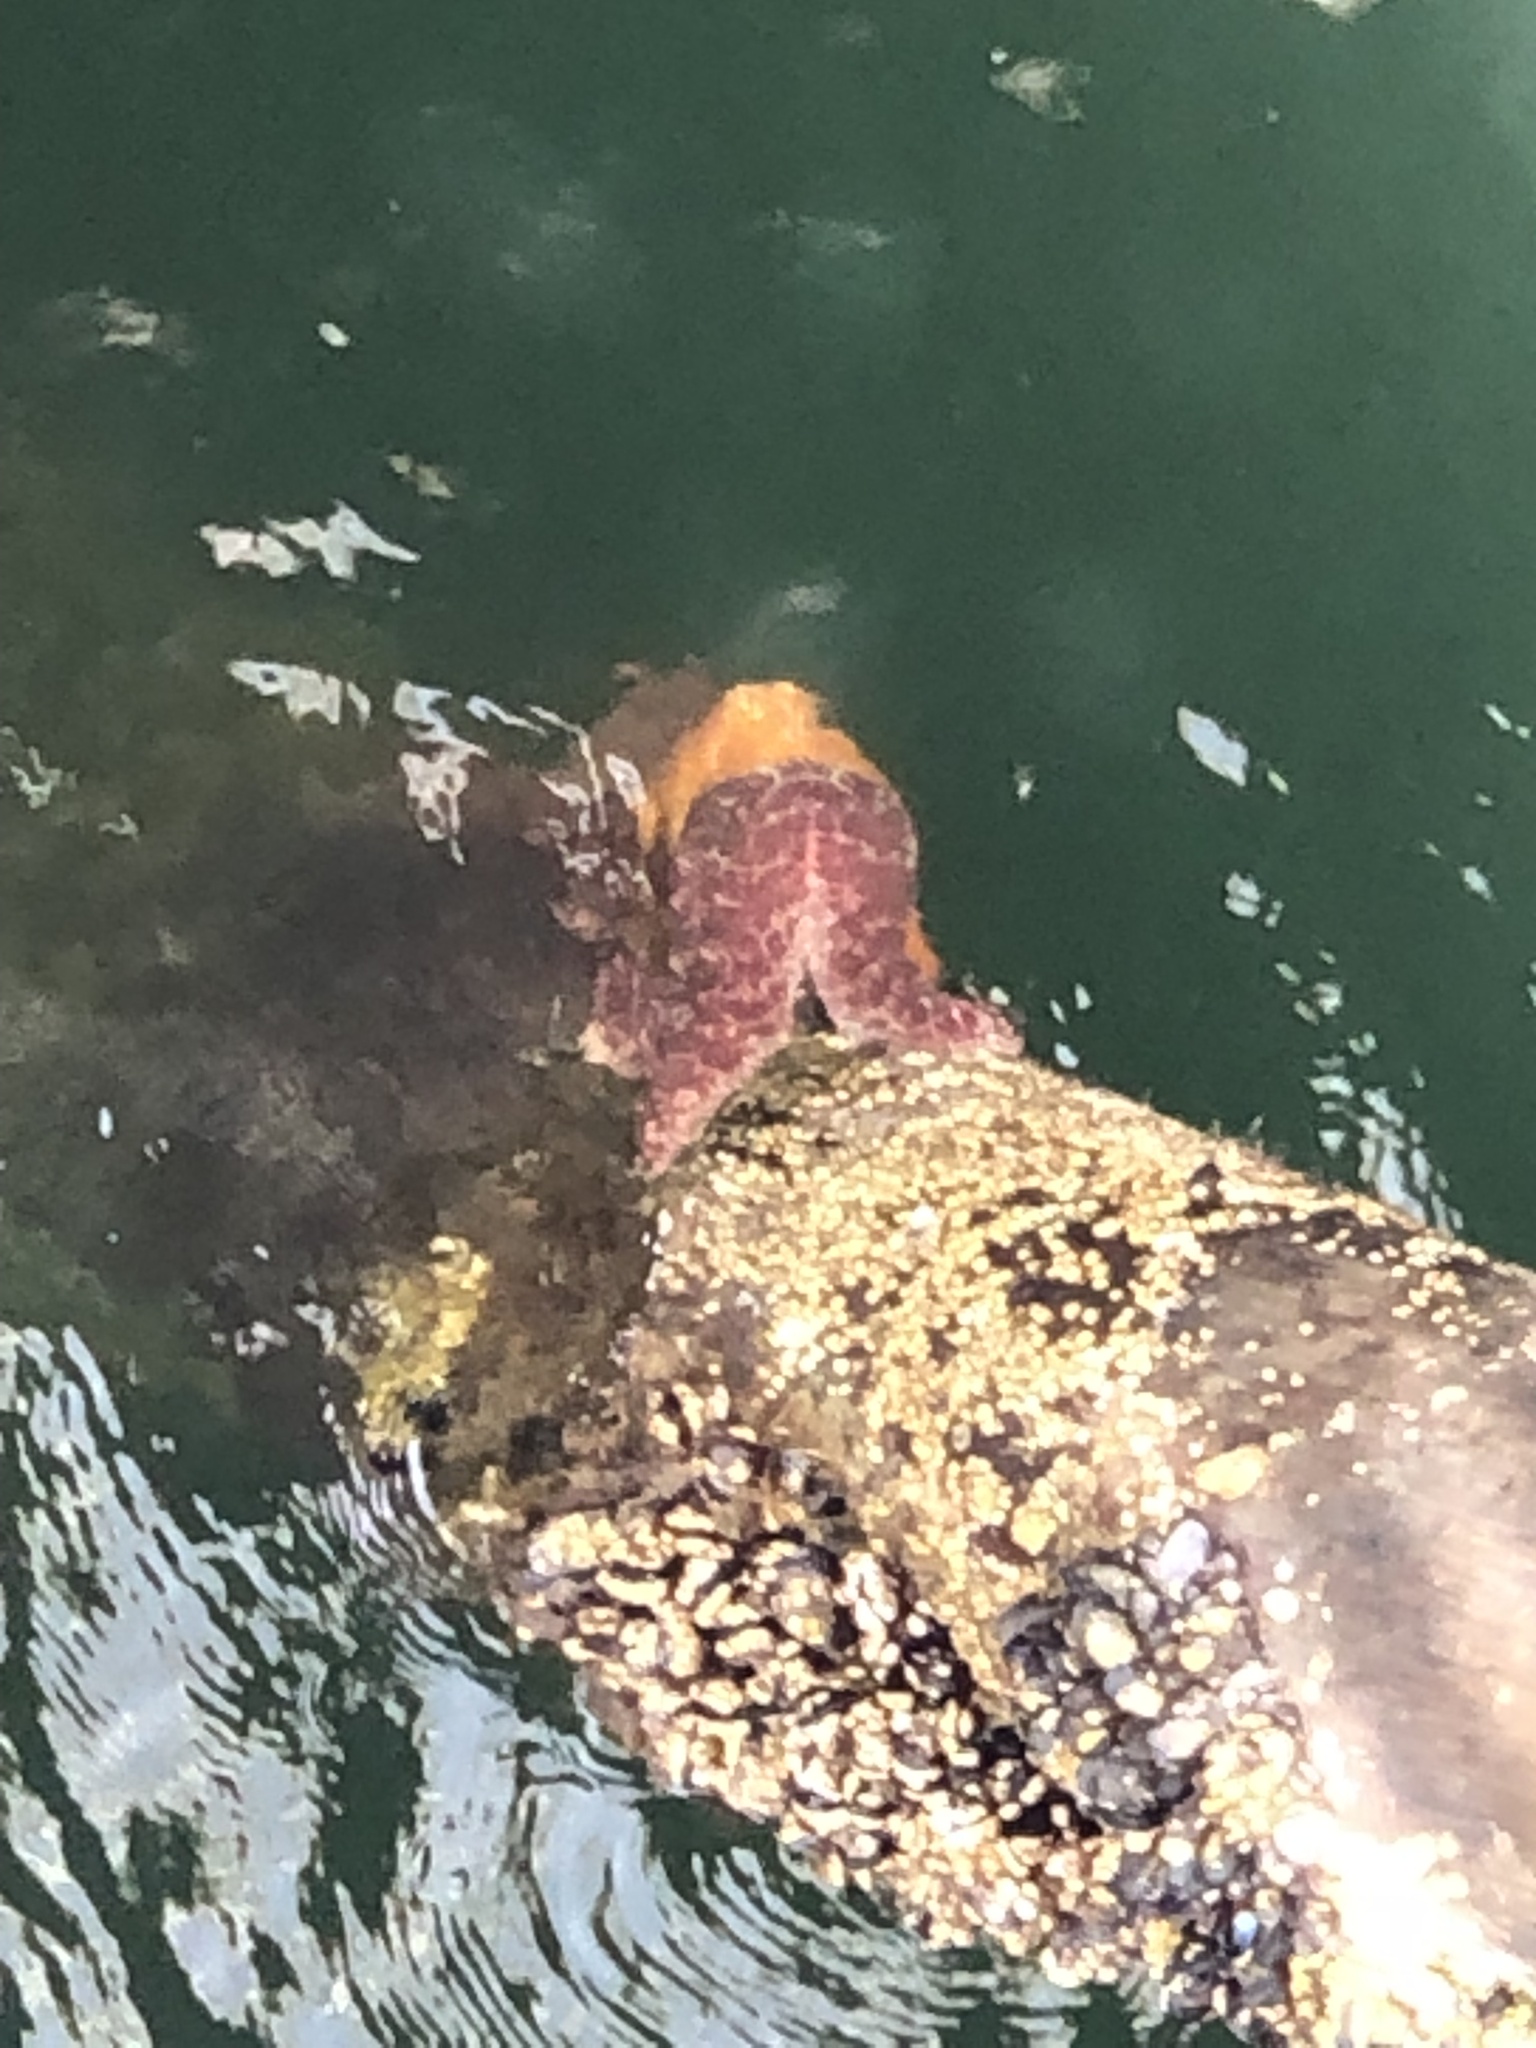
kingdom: Animalia
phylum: Echinodermata
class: Asteroidea
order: Forcipulatida
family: Asteriidae
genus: Pisaster
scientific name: Pisaster ochraceus
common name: Ochre stars
